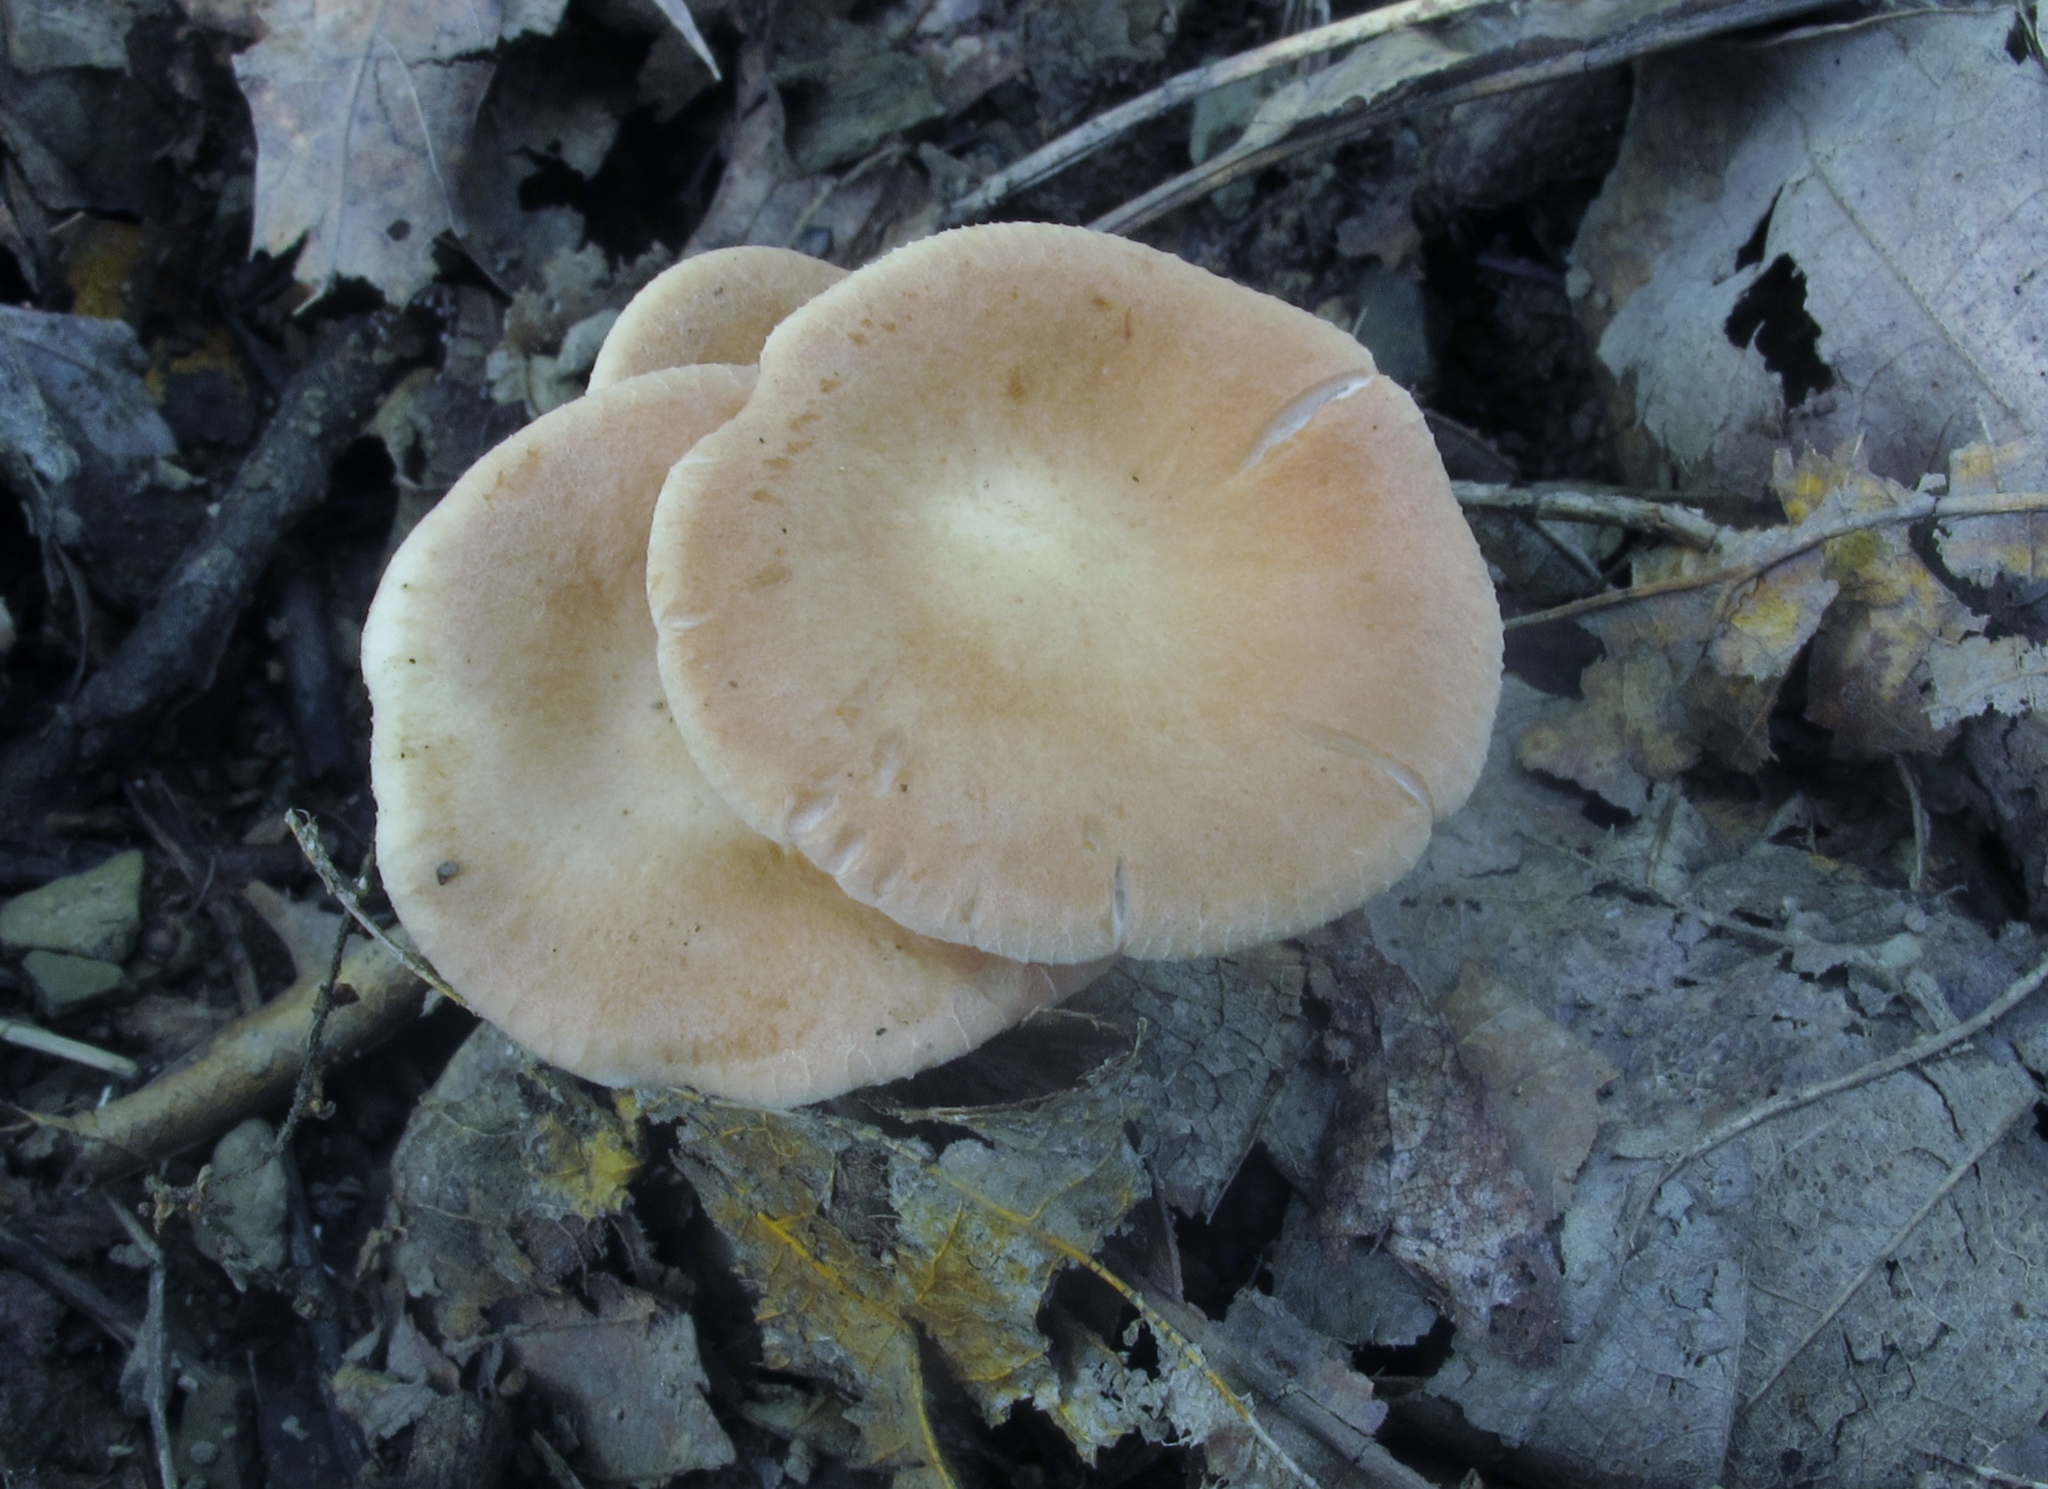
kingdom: Fungi
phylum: Basidiomycota
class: Agaricomycetes
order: Agaricales
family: Tricholomataceae
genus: Infundibulicybe
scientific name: Infundibulicybe gibba
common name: Common funnel
